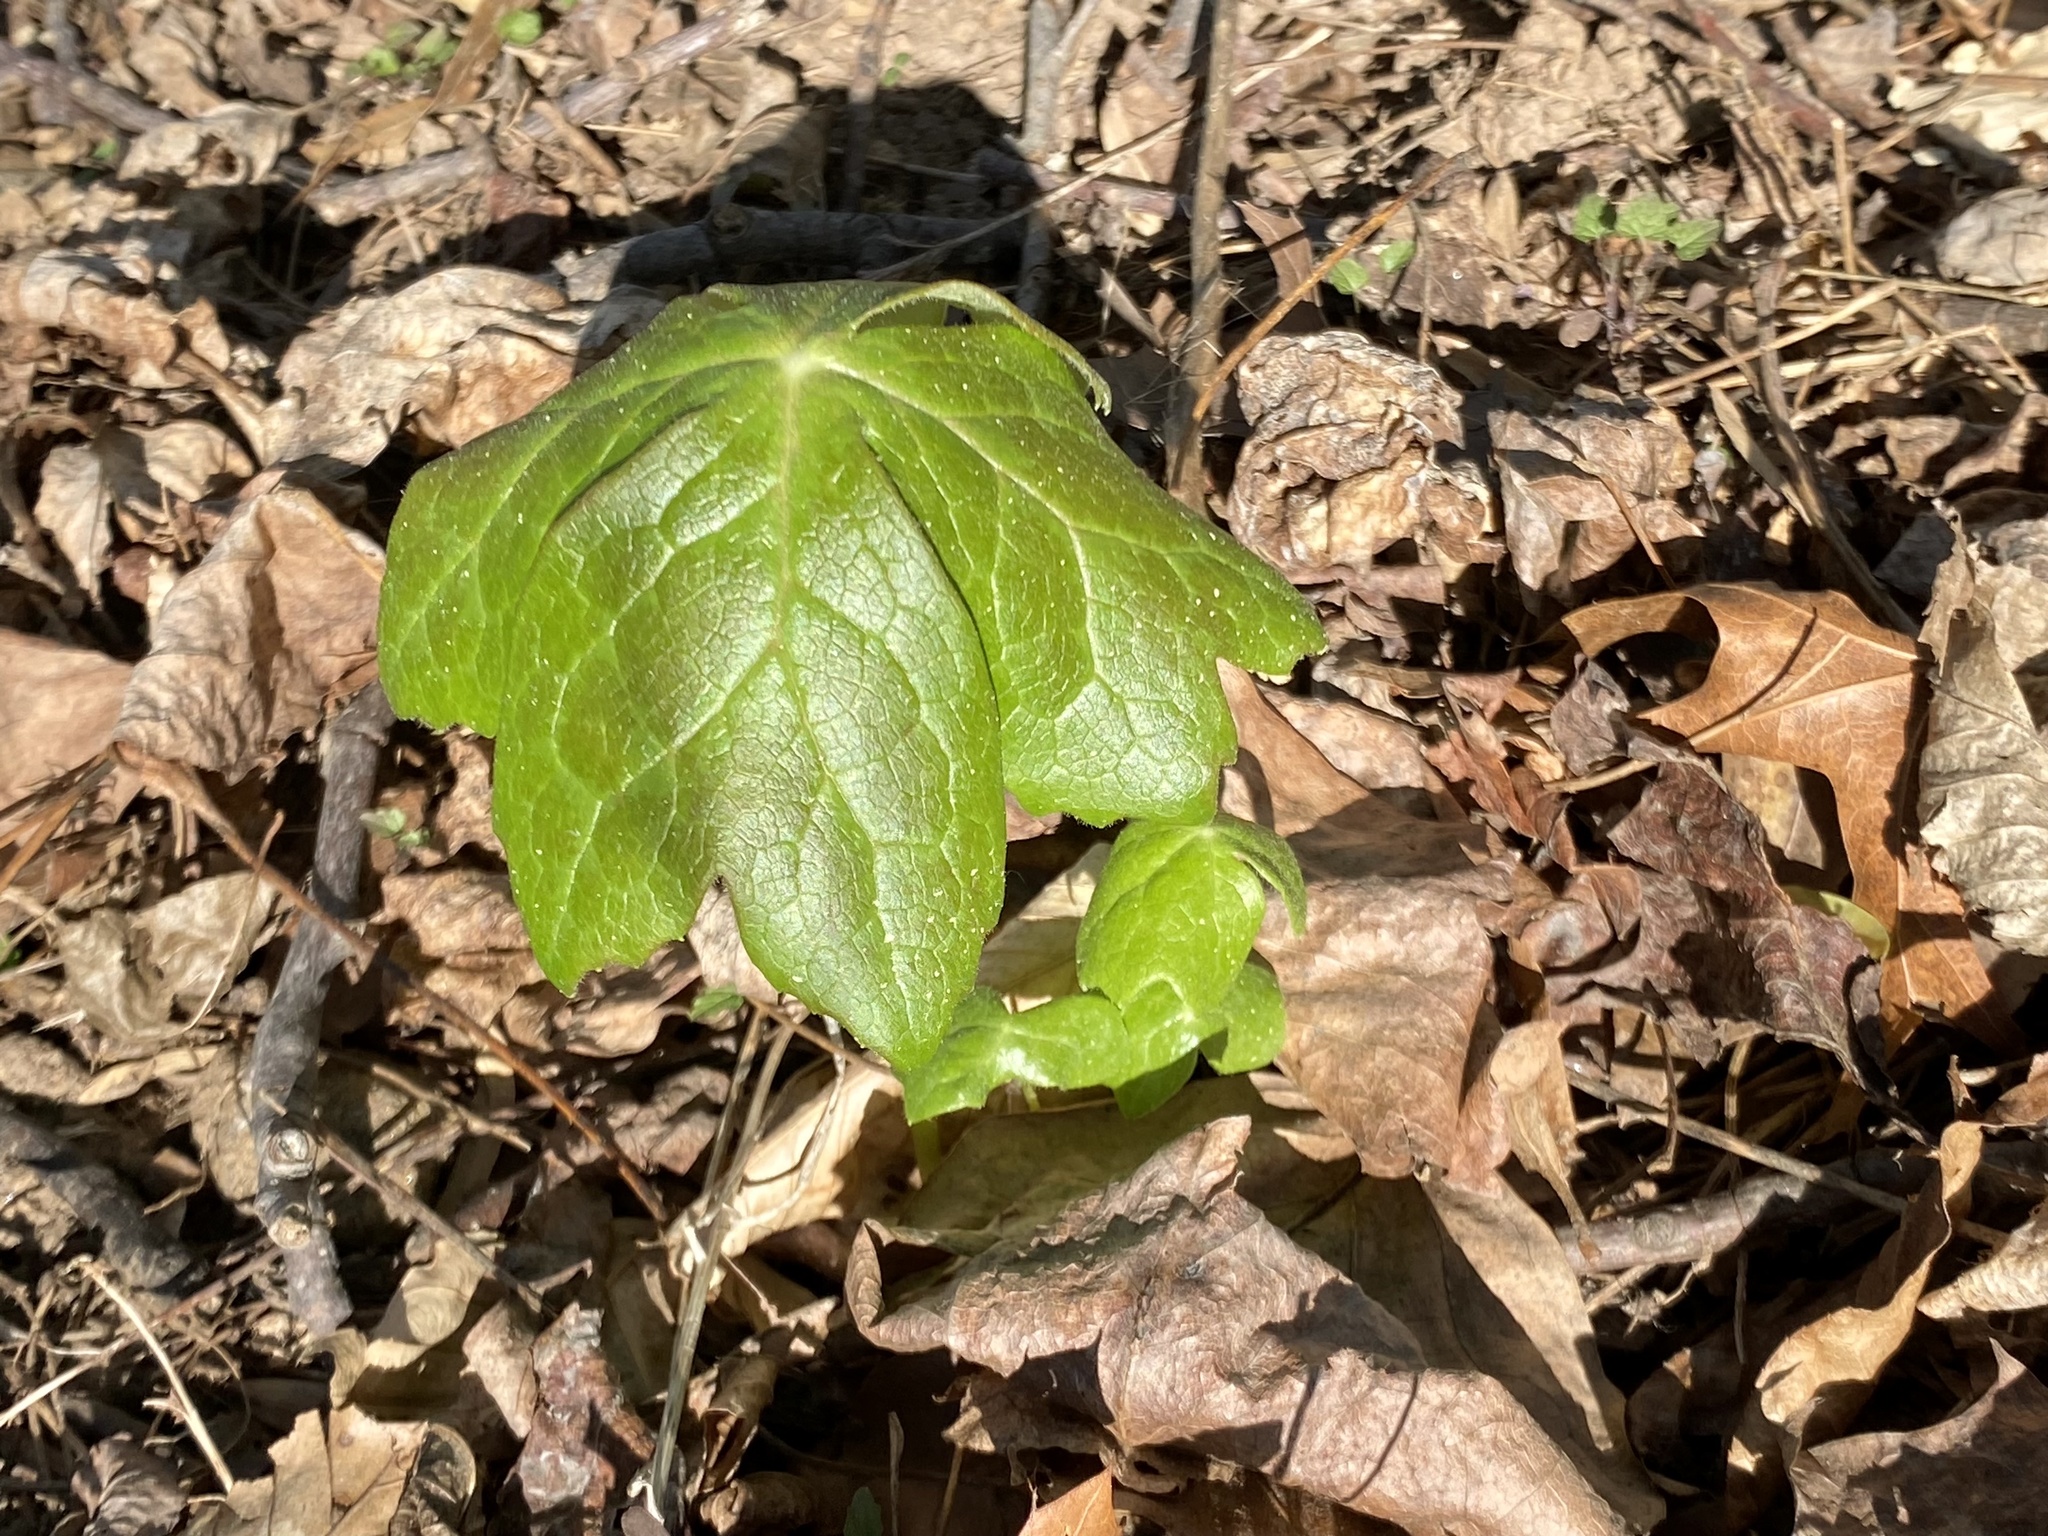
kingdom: Plantae
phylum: Tracheophyta
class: Magnoliopsida
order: Ranunculales
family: Berberidaceae
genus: Podophyllum
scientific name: Podophyllum peltatum
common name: Wild mandrake
